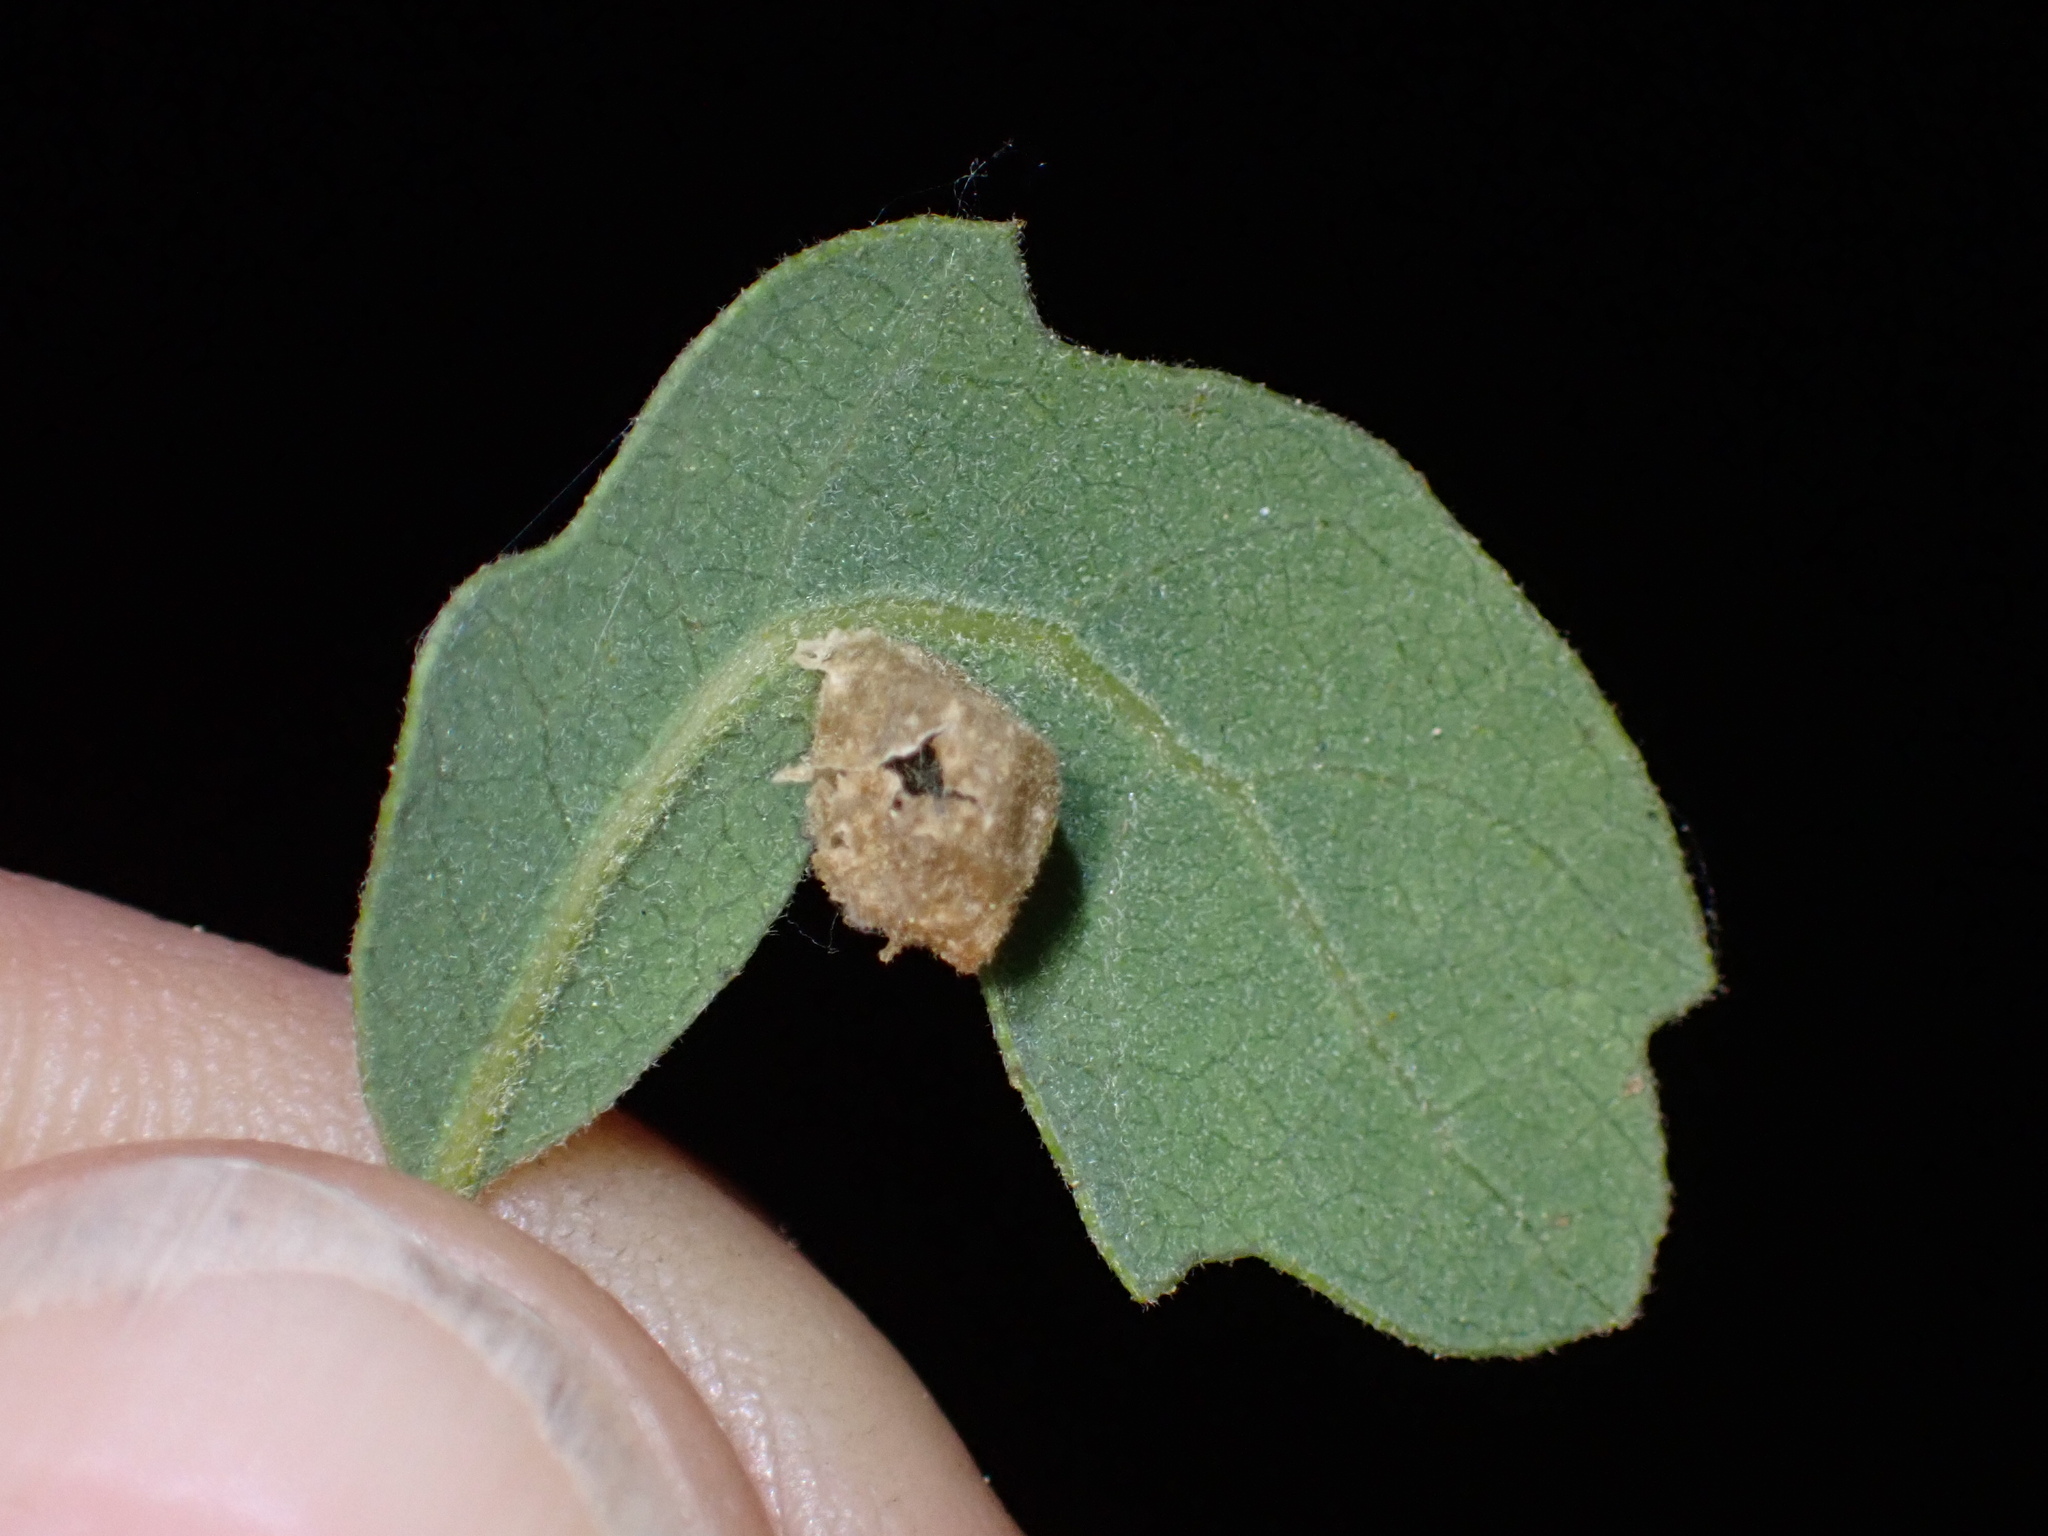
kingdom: Animalia
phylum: Arthropoda
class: Insecta
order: Hymenoptera
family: Cynipidae
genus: Andricus
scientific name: Andricus
